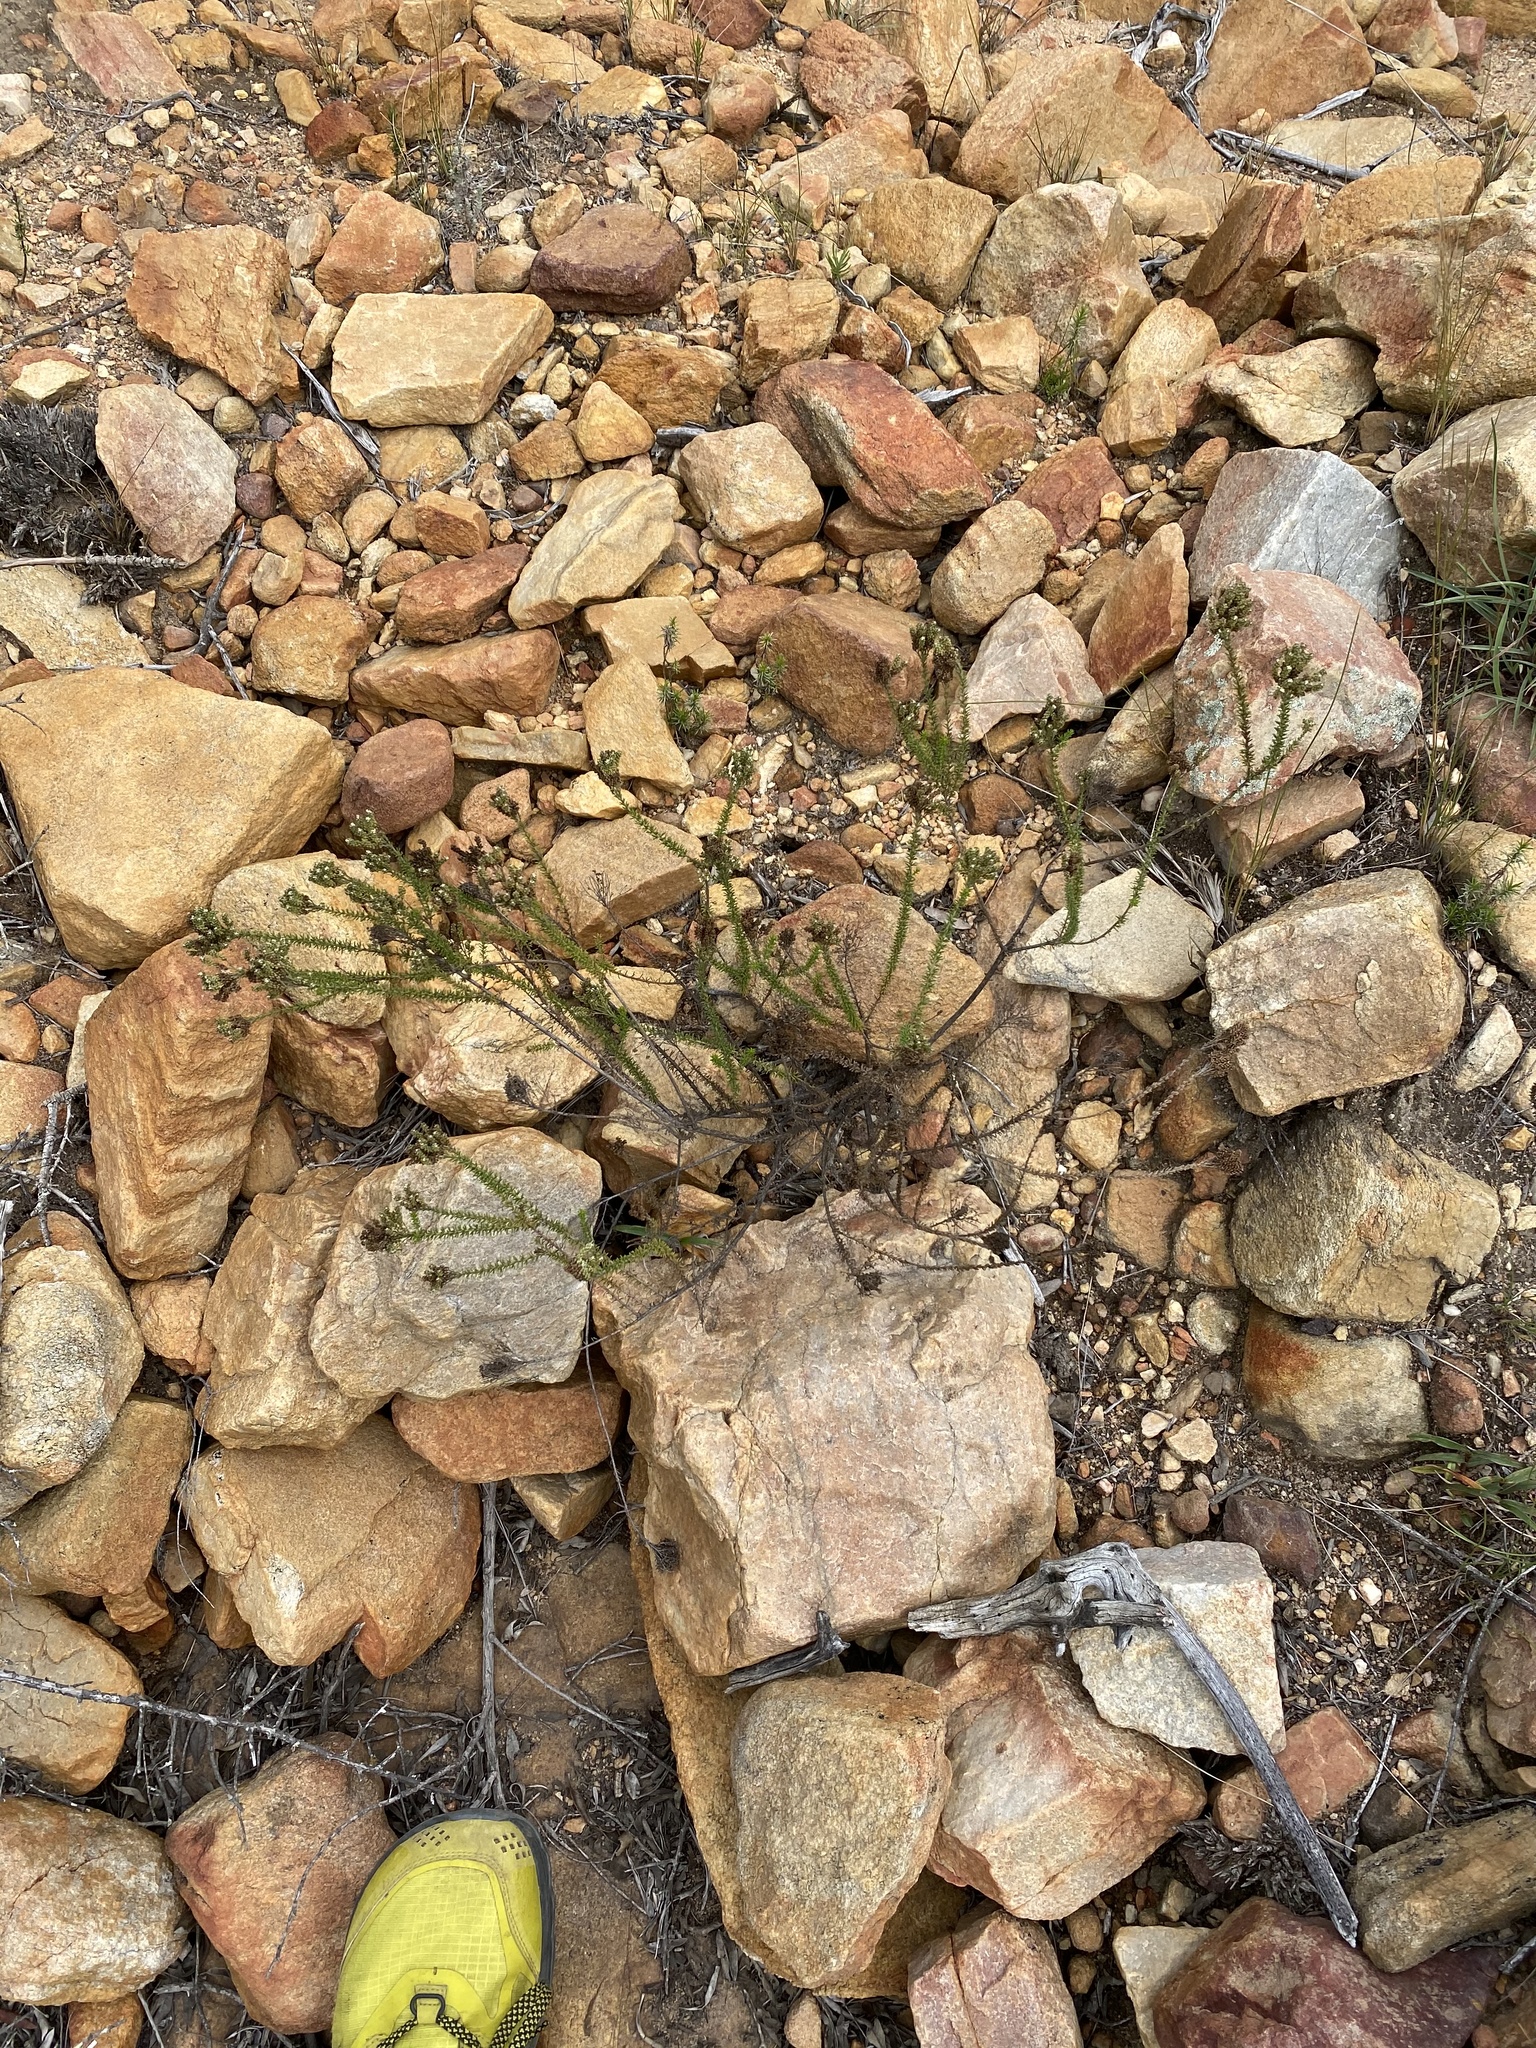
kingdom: Plantae
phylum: Tracheophyta
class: Magnoliopsida
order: Lamiales
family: Scrophulariaceae
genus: Selago
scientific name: Selago dolosa
